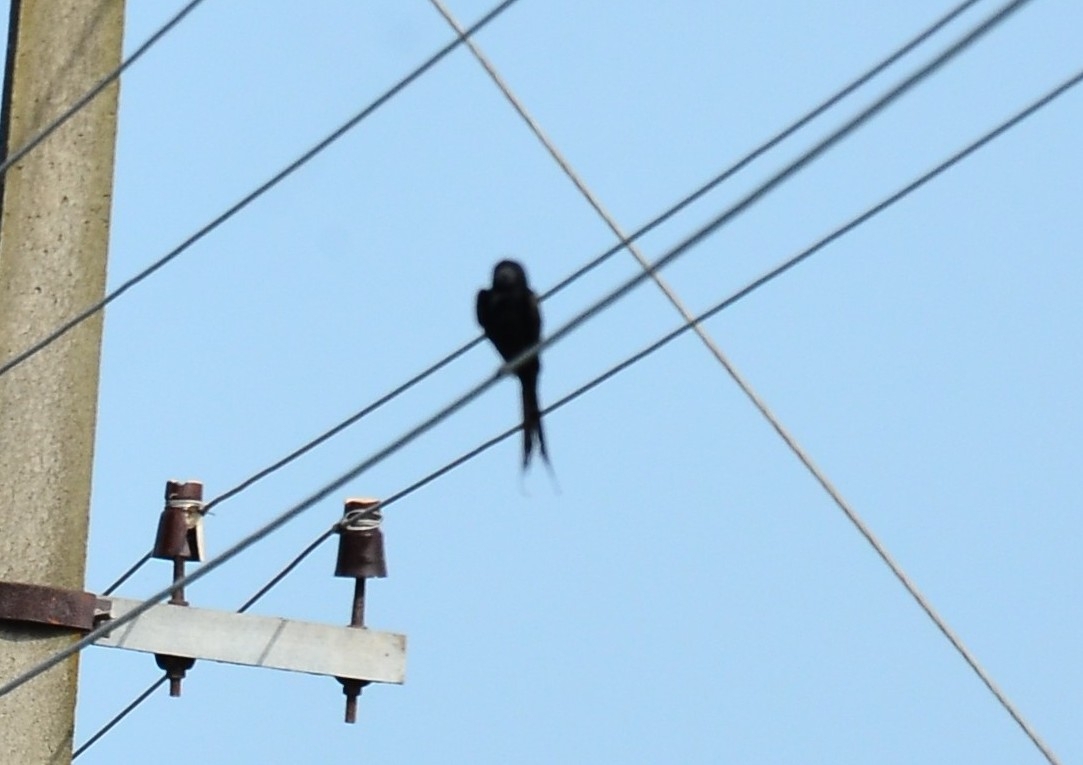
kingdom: Animalia
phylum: Chordata
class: Aves
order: Passeriformes
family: Dicruridae
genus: Dicrurus
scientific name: Dicrurus macrocercus
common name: Black drongo
